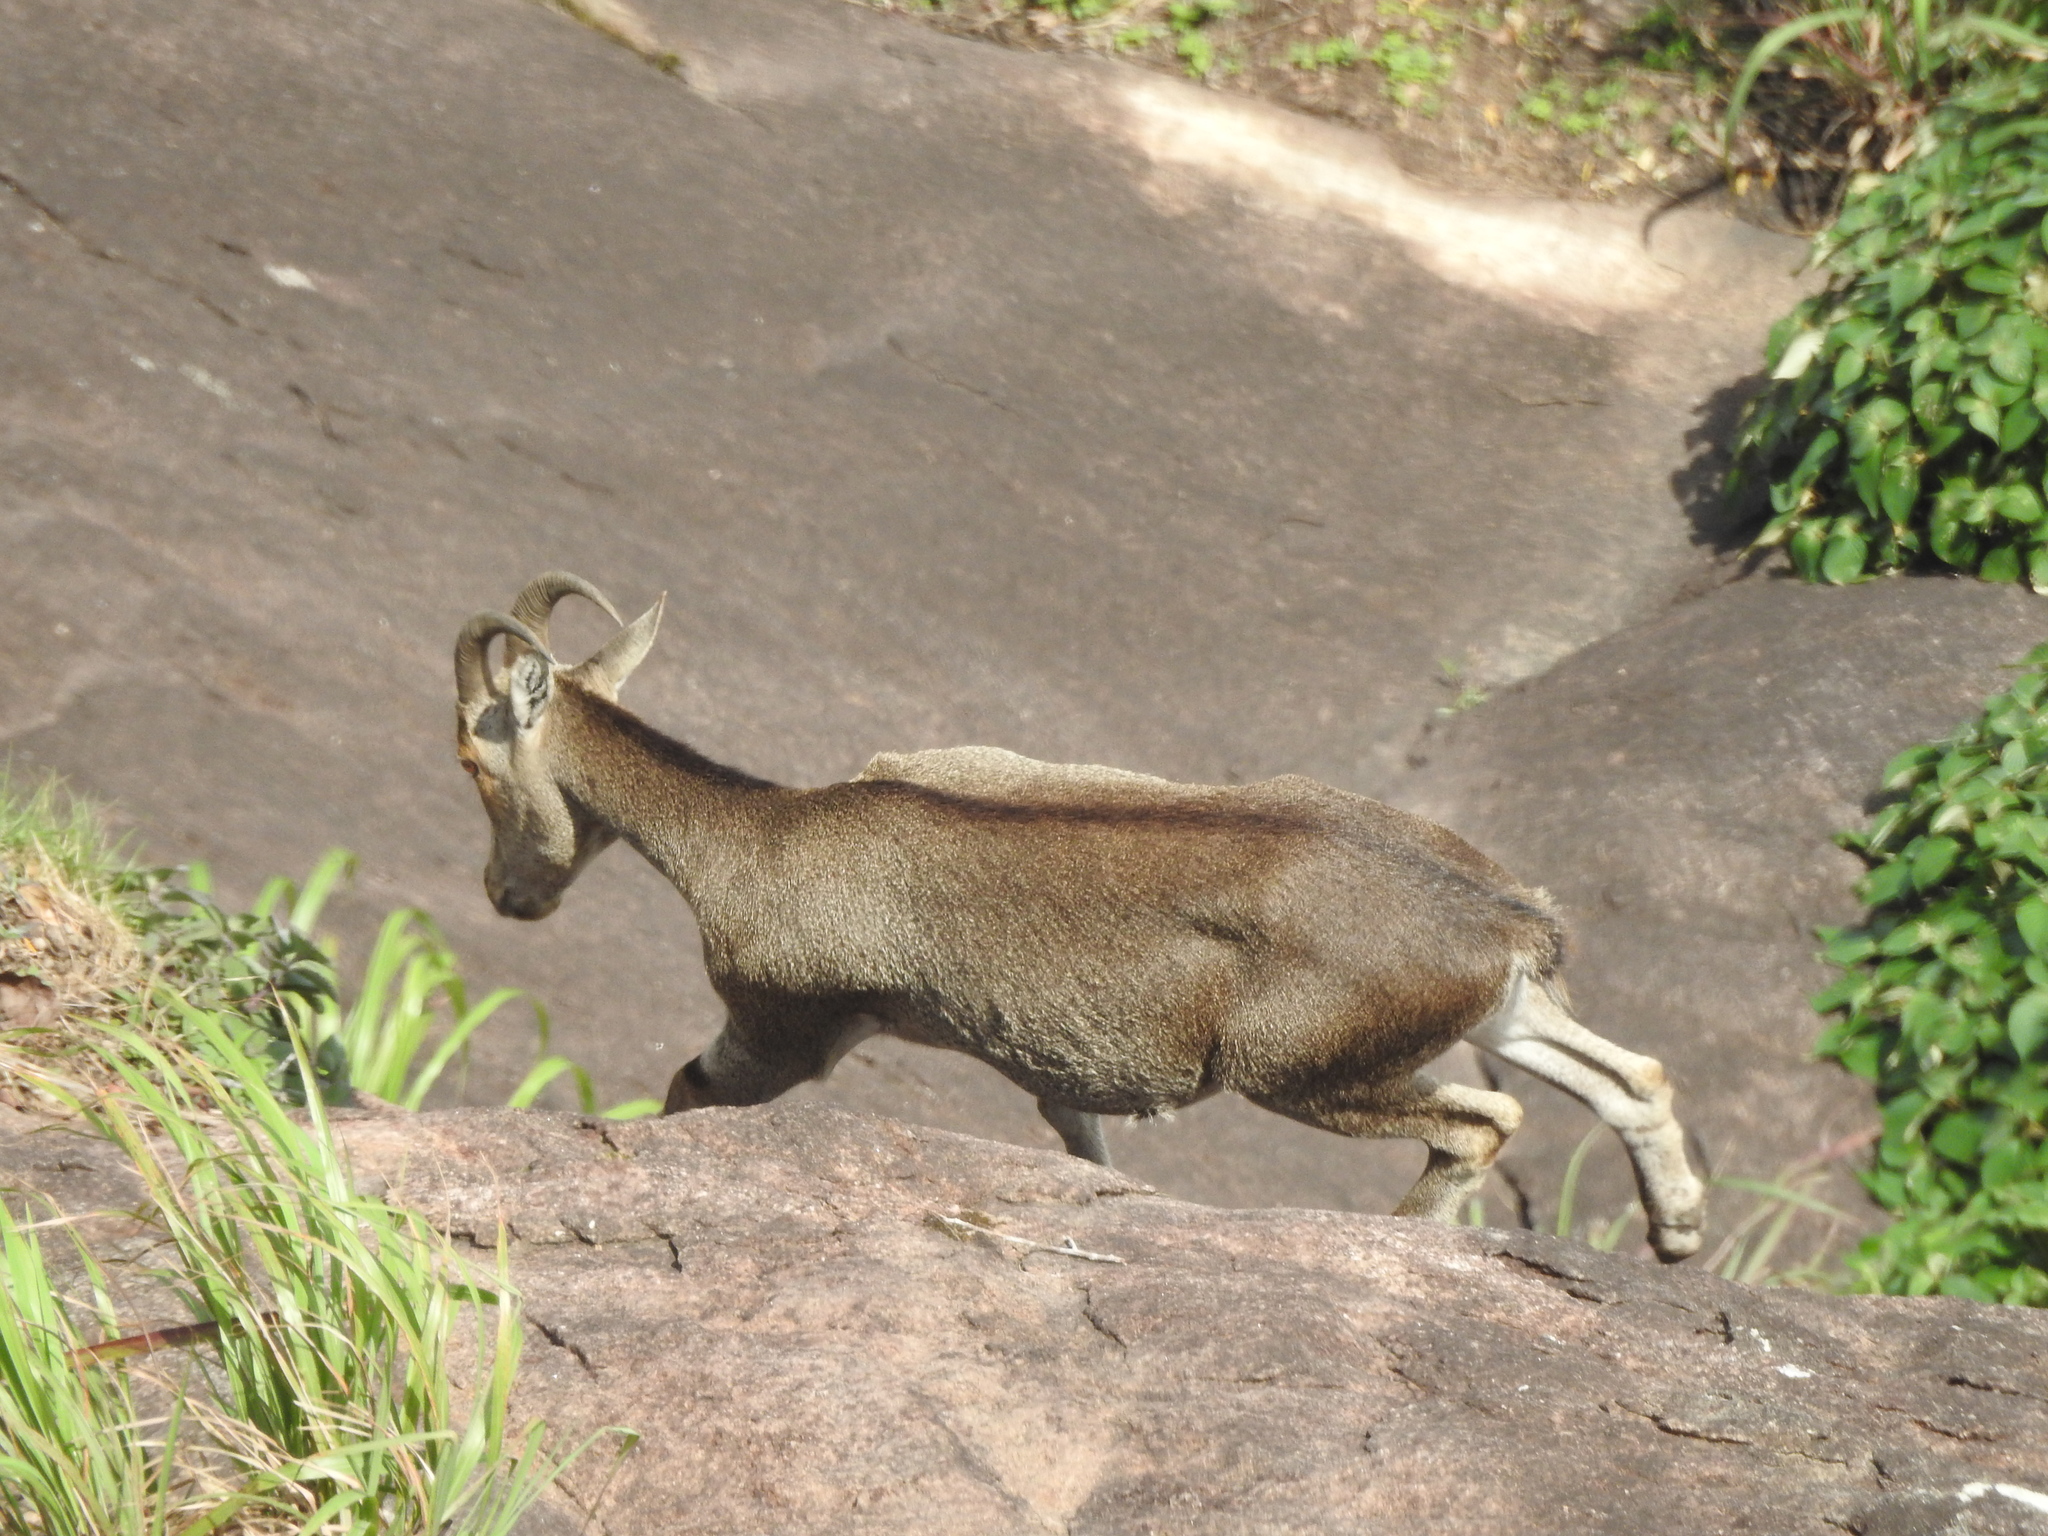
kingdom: Animalia
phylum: Chordata
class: Mammalia
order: Artiodactyla
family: Bovidae
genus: Hemitragus
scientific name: Hemitragus hylocrius
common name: Nilgiri tahr
